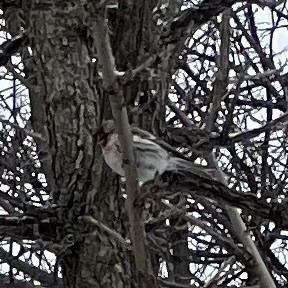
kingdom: Animalia
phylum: Chordata
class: Aves
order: Passeriformes
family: Fringillidae
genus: Acanthis
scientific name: Acanthis flammea
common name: Common redpoll
